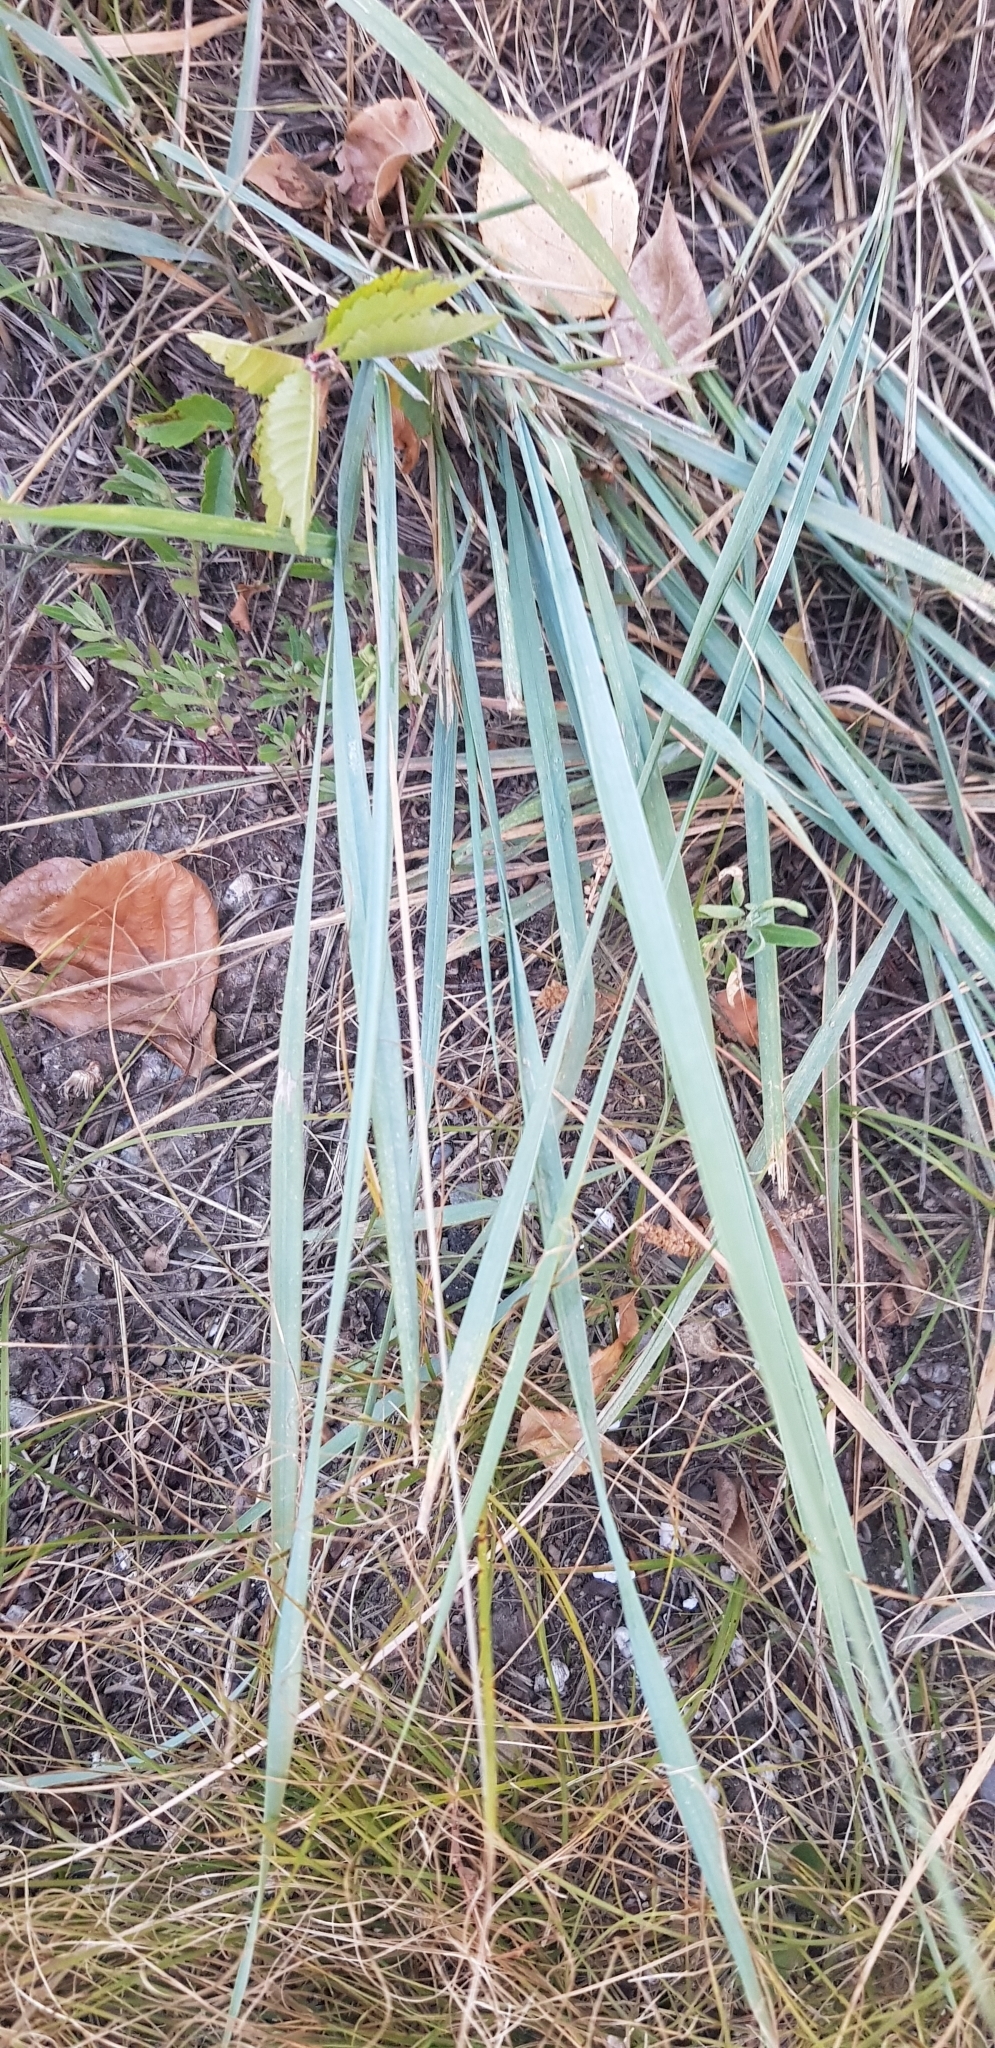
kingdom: Plantae
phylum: Tracheophyta
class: Liliopsida
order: Poales
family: Poaceae
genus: Leymus
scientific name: Leymus chinensis
